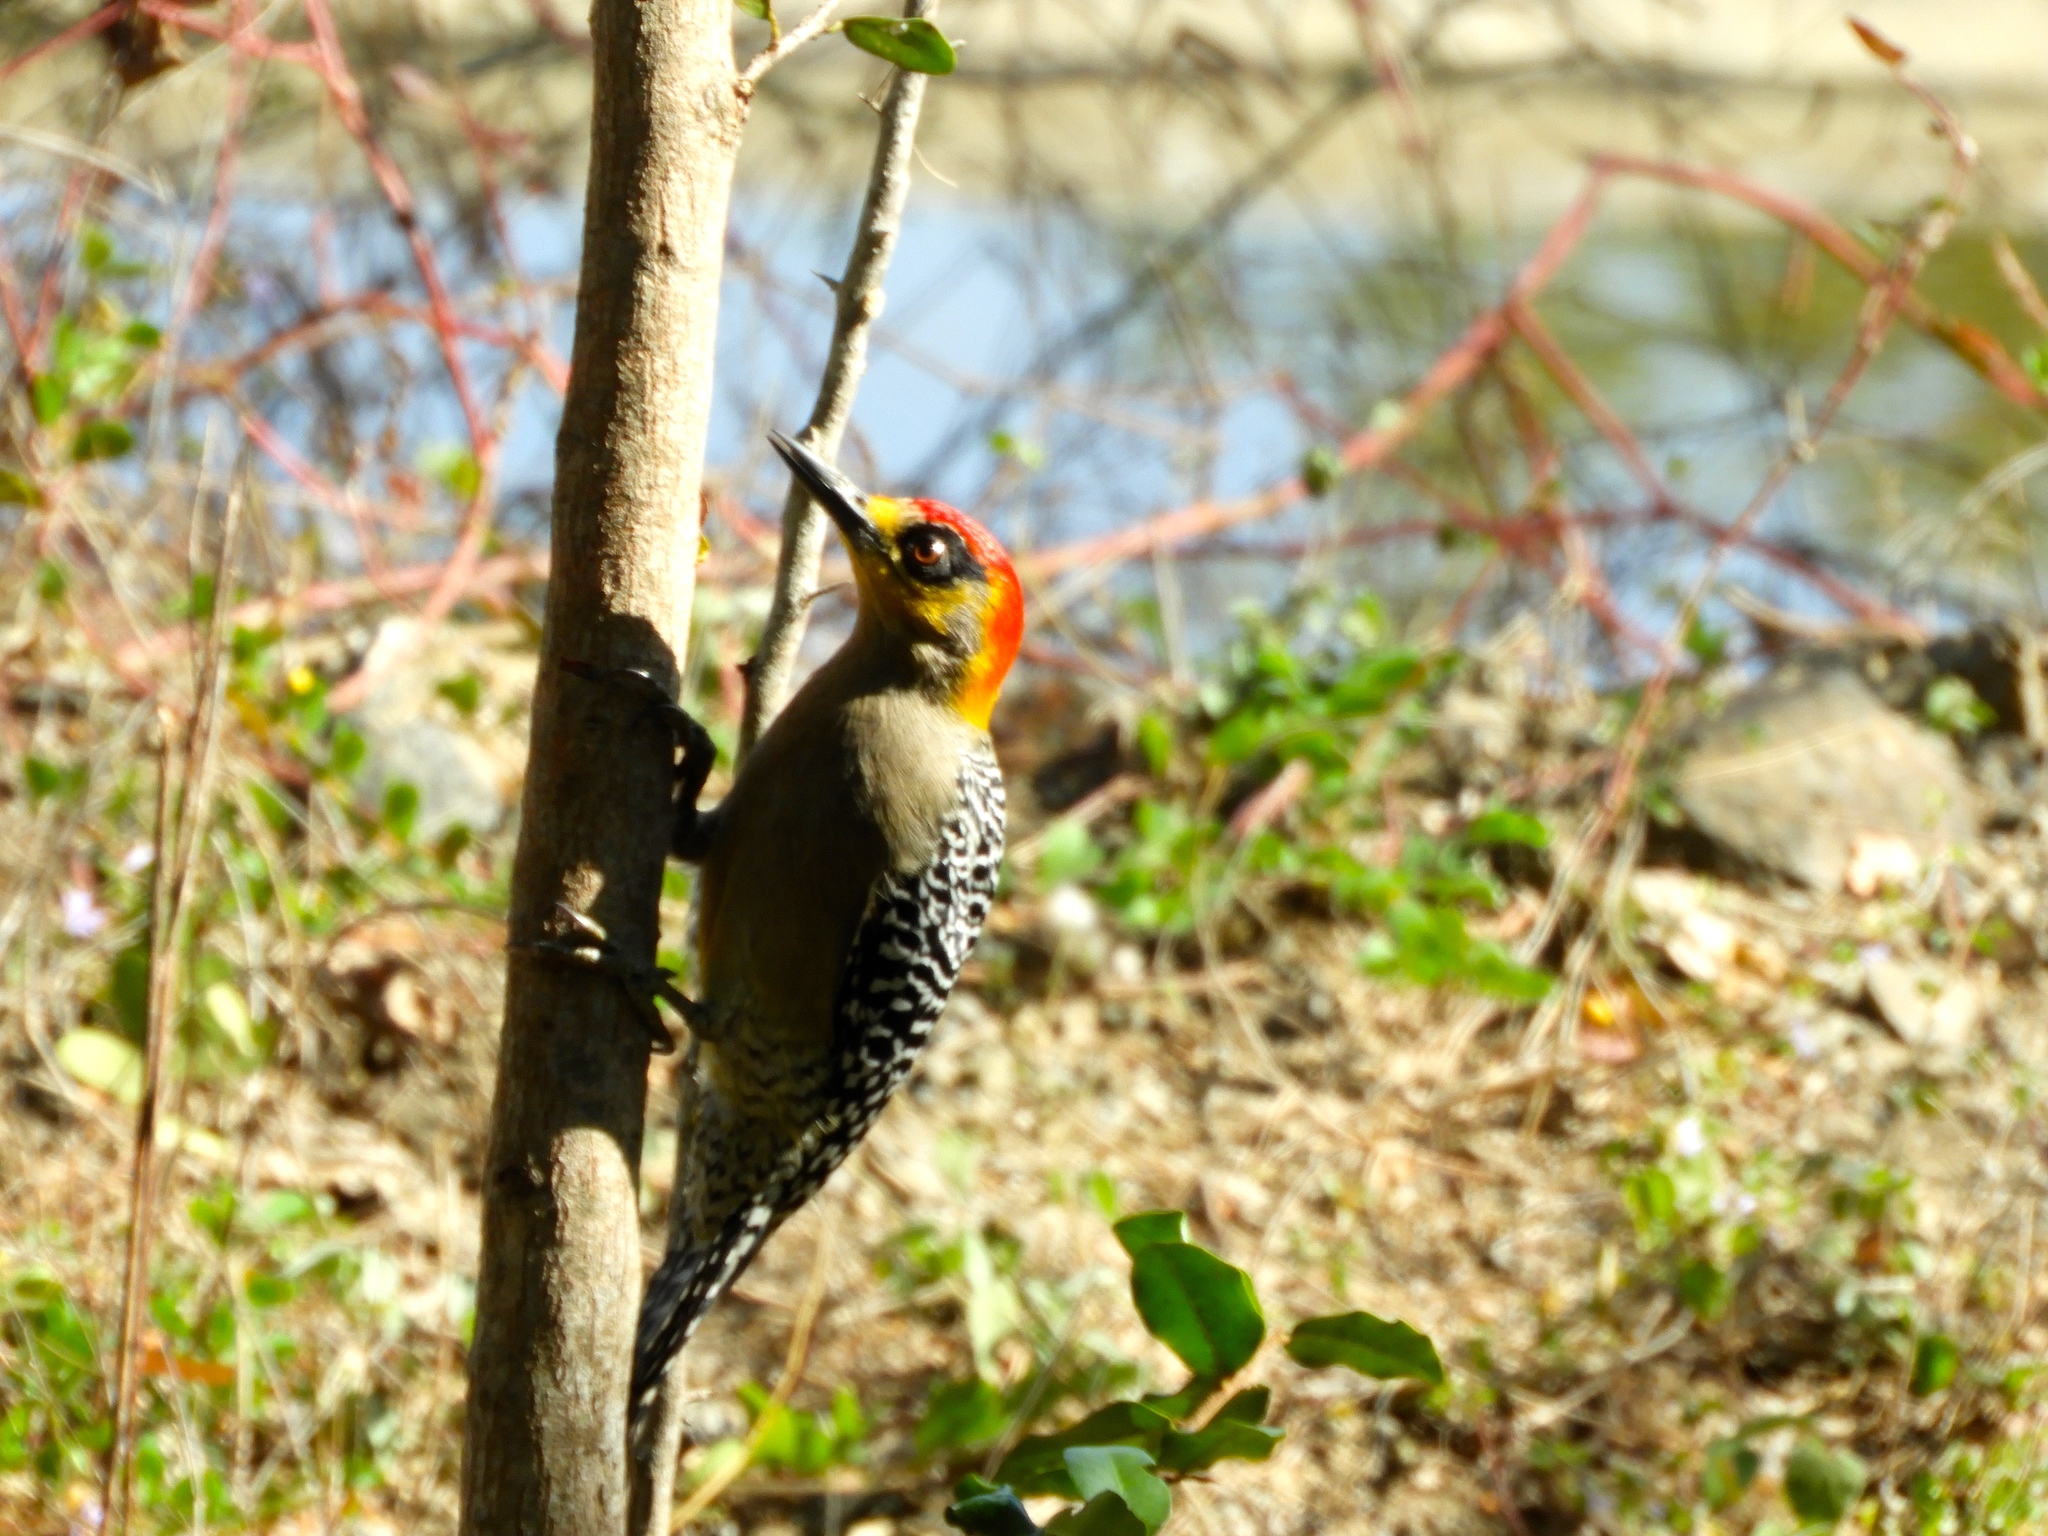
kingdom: Animalia
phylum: Chordata
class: Aves
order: Piciformes
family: Picidae
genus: Melanerpes
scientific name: Melanerpes chrysogenys
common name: Golden-cheeked woodpecker
